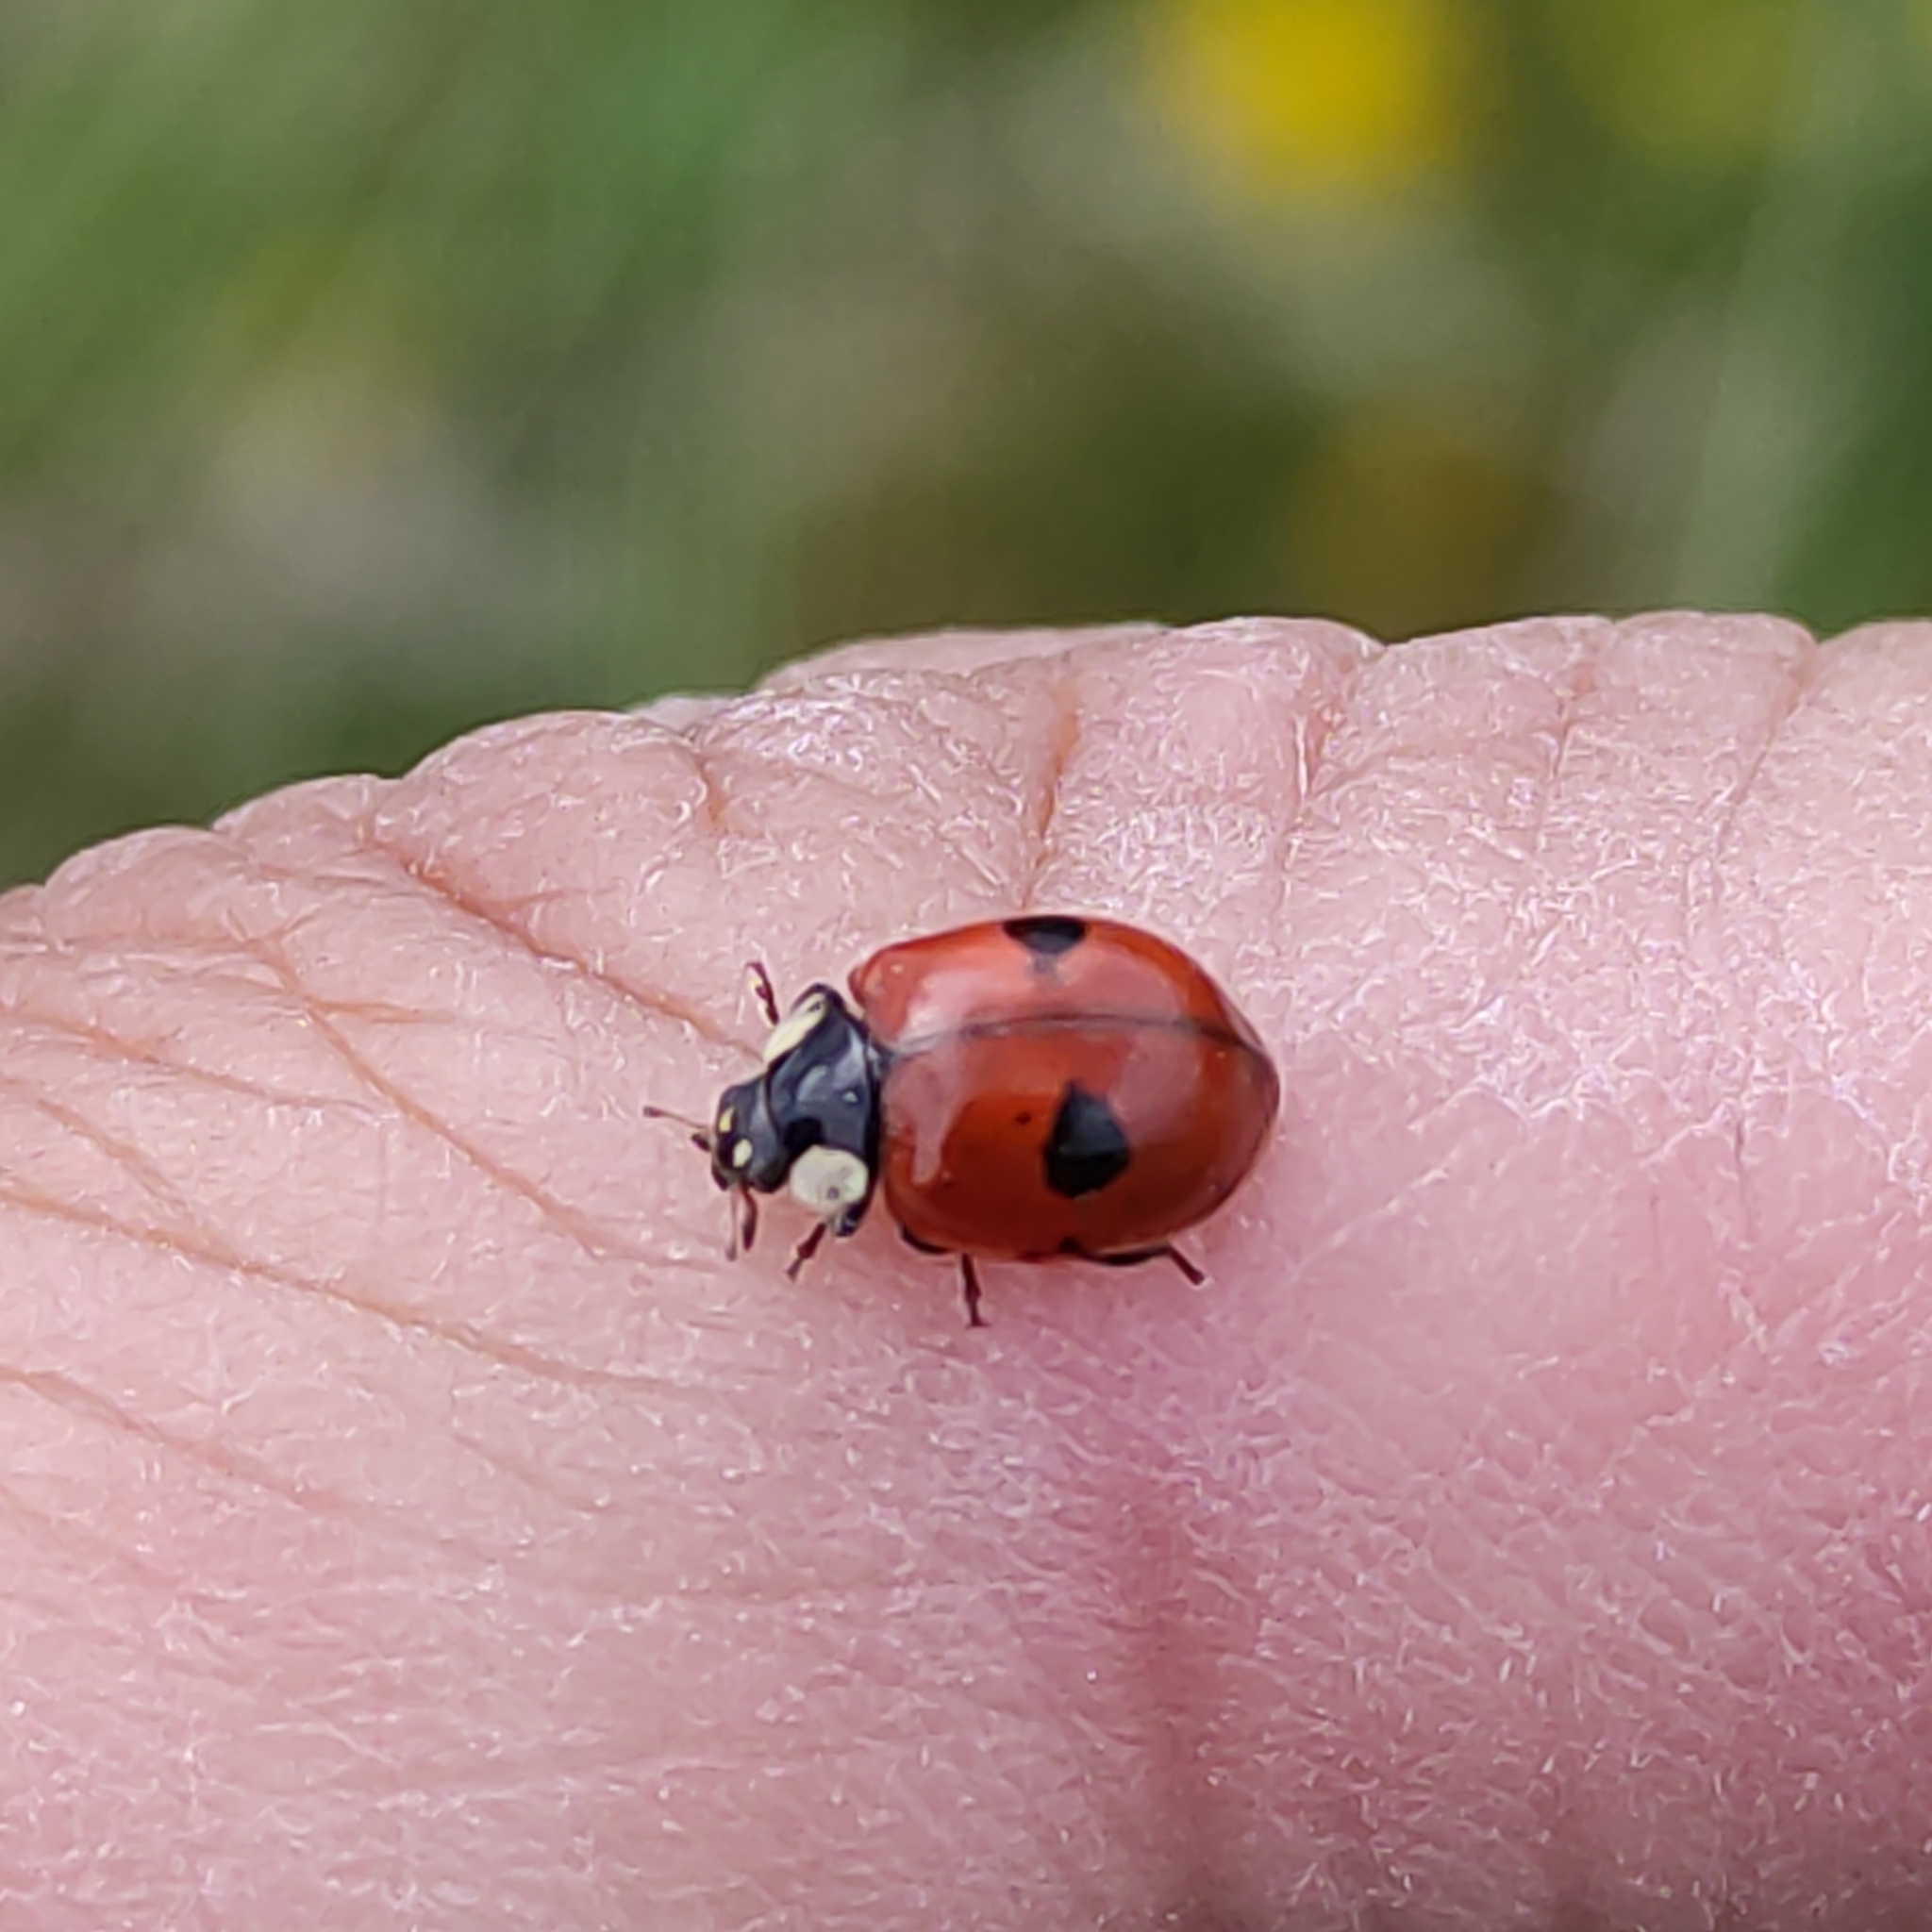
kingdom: Animalia
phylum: Arthropoda
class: Insecta
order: Coleoptera
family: Coccinellidae
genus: Adalia
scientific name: Adalia bipunctata
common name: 2-spot ladybird
